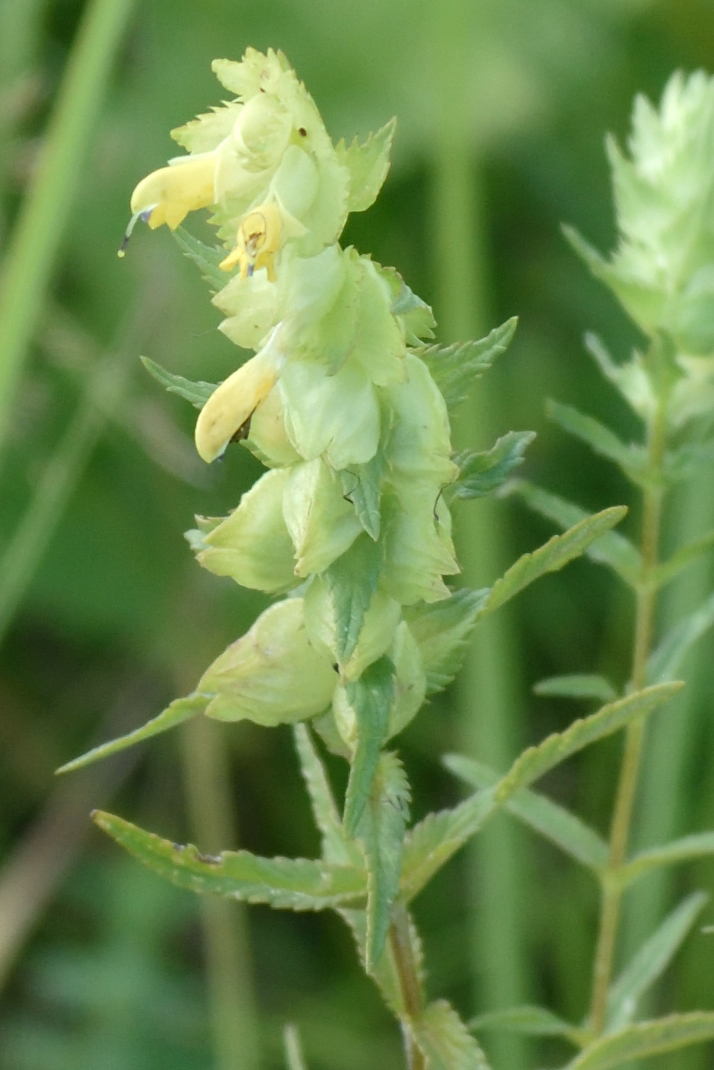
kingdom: Plantae
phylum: Tracheophyta
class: Magnoliopsida
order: Lamiales
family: Orobanchaceae
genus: Rhinanthus
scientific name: Rhinanthus serotinus
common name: Late-flowering yellow rattle
